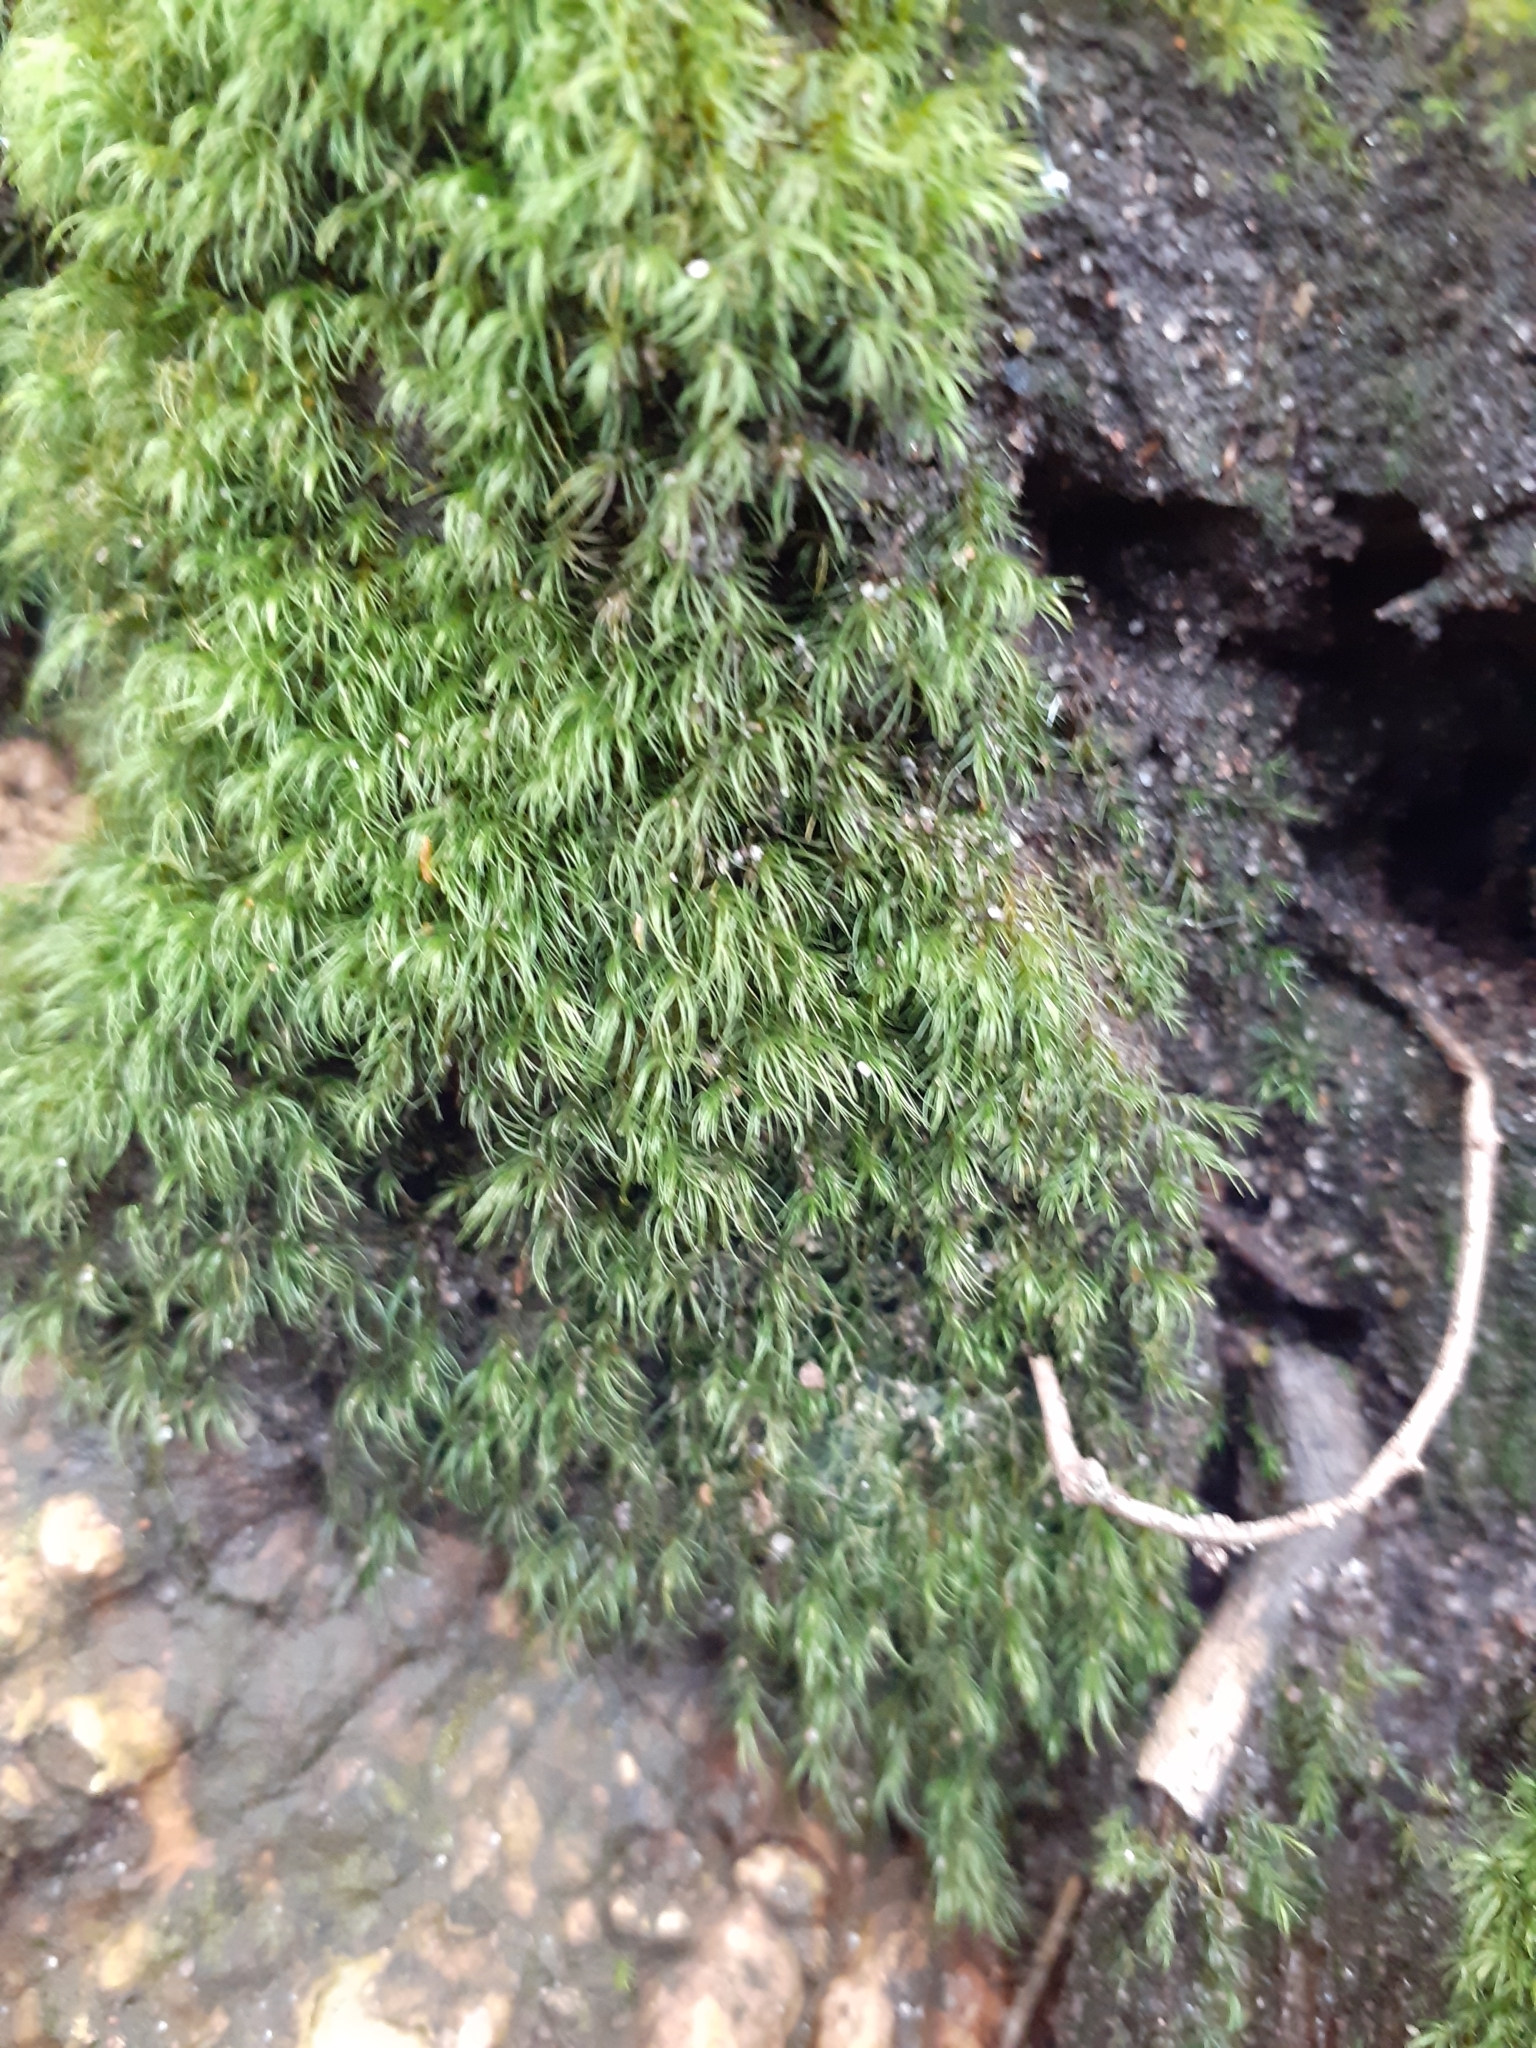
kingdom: Plantae
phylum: Bryophyta
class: Bryopsida
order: Dicranales
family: Dicranellaceae
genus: Dicranella
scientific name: Dicranella heteromalla
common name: Silky forklet moss
